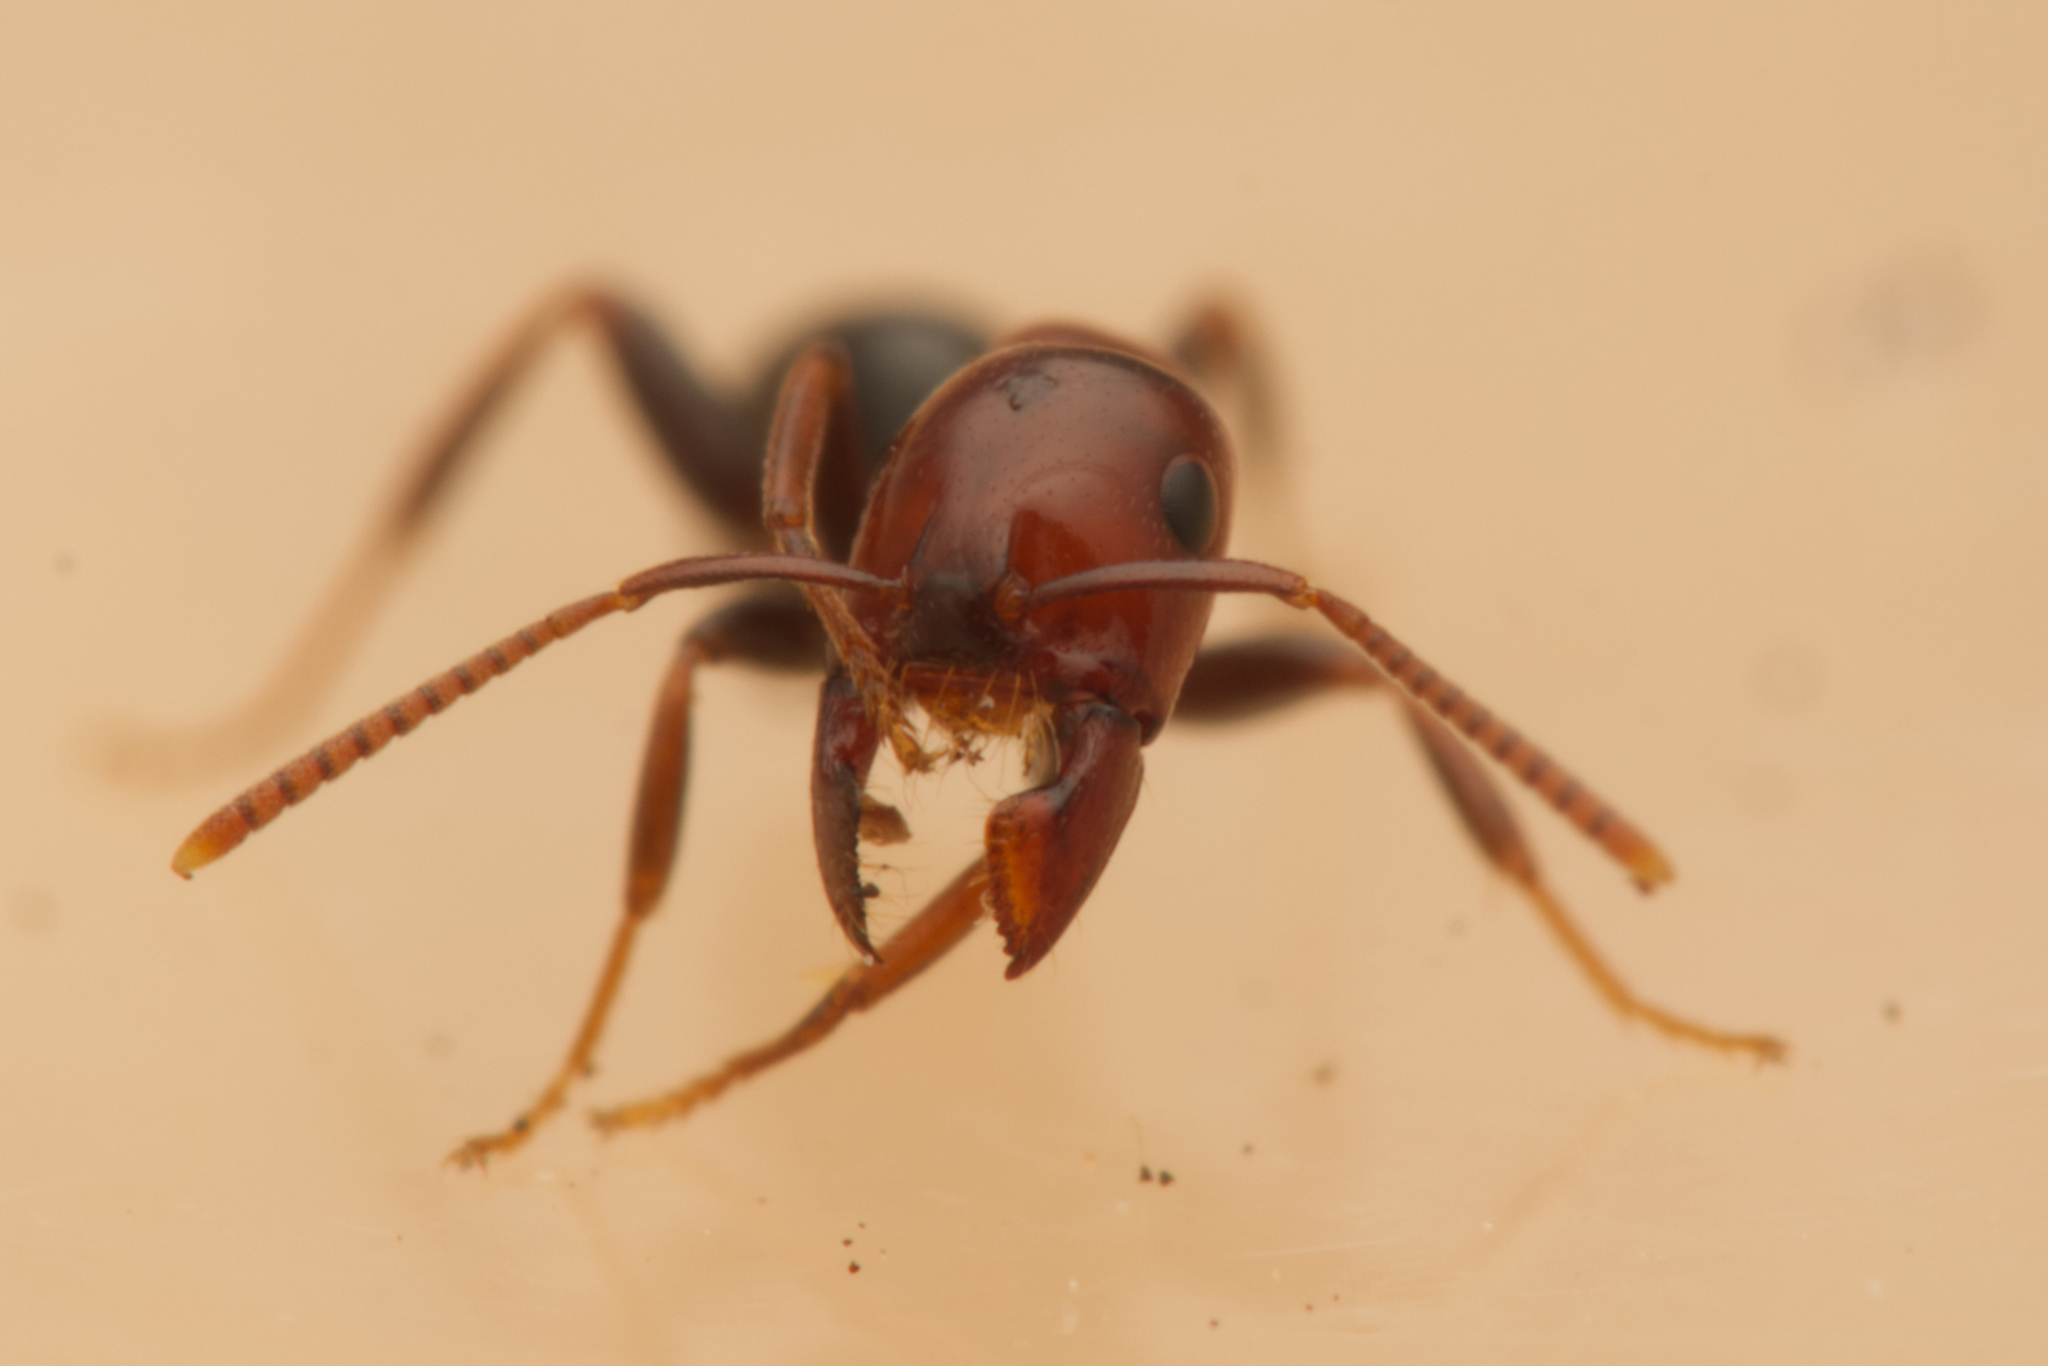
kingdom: Animalia
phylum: Arthropoda
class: Insecta
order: Hymenoptera
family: Formicidae
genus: Melophorus
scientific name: Melophorus pelecygnathus
